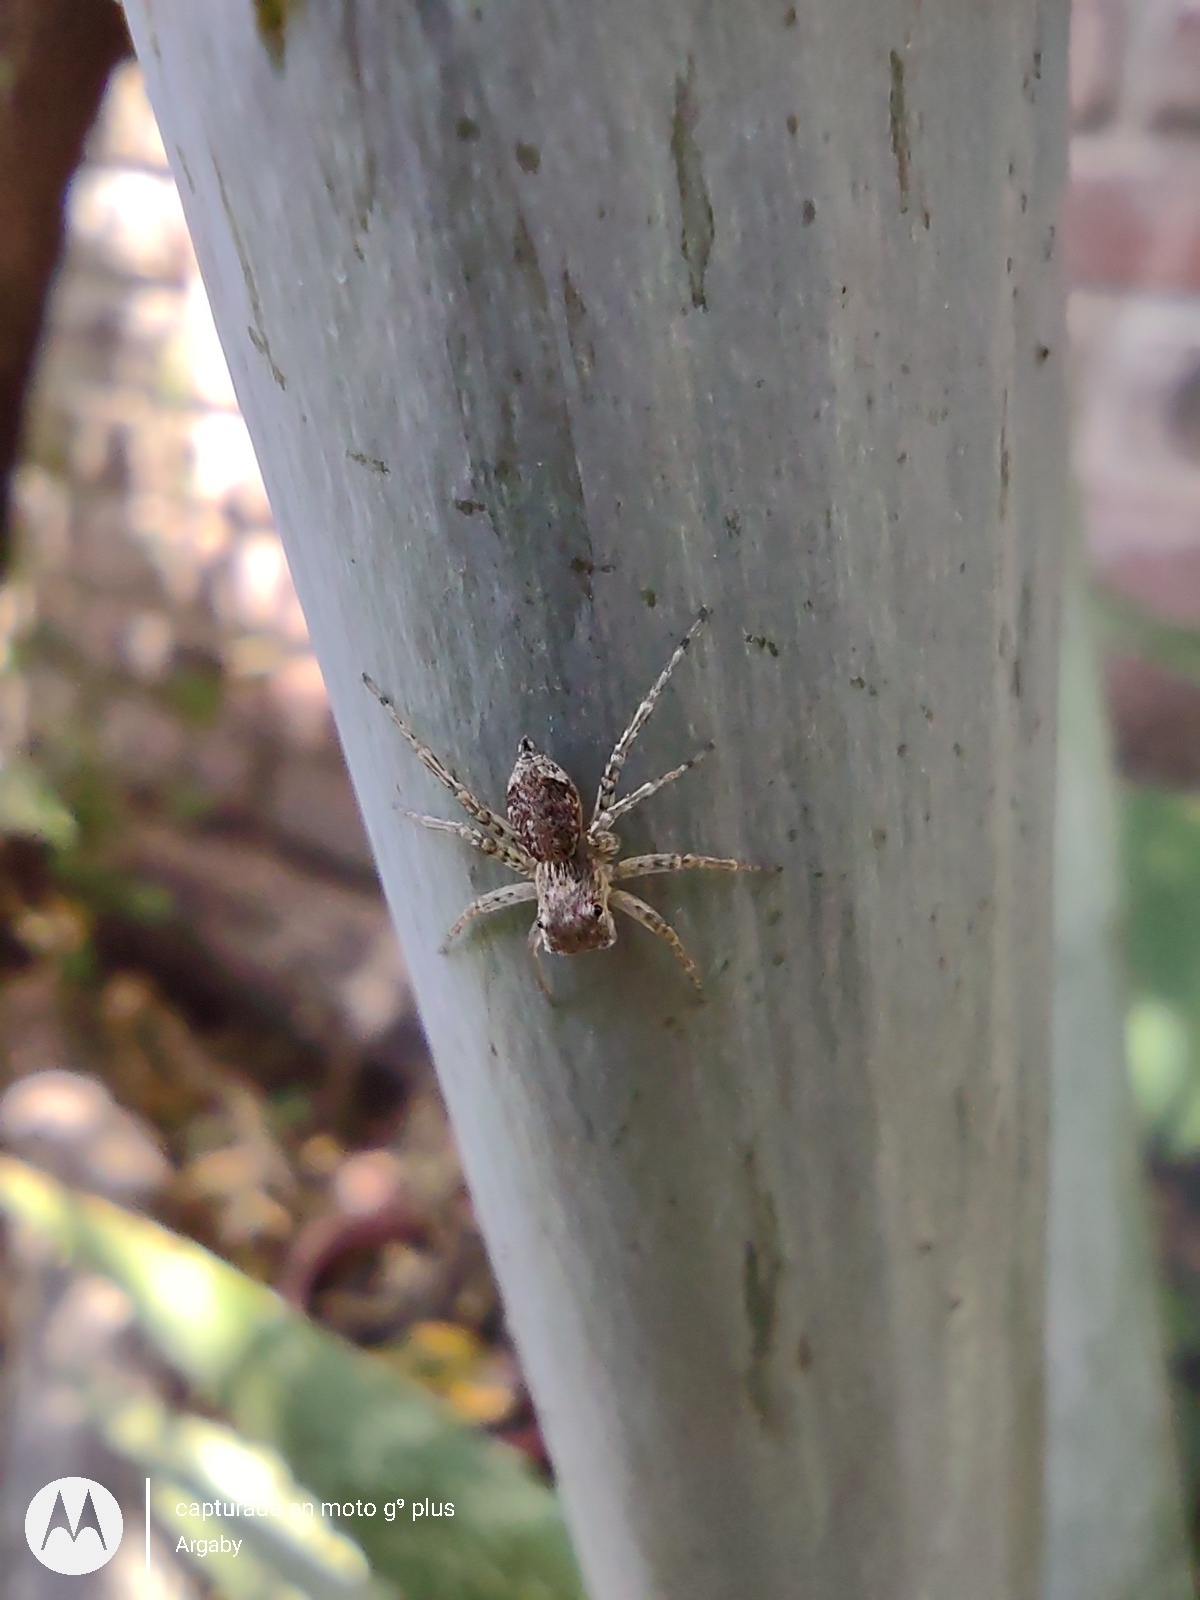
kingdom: Animalia
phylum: Arthropoda
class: Arachnida
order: Araneae
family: Salticidae
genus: Saitis
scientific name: Saitis variegatus
